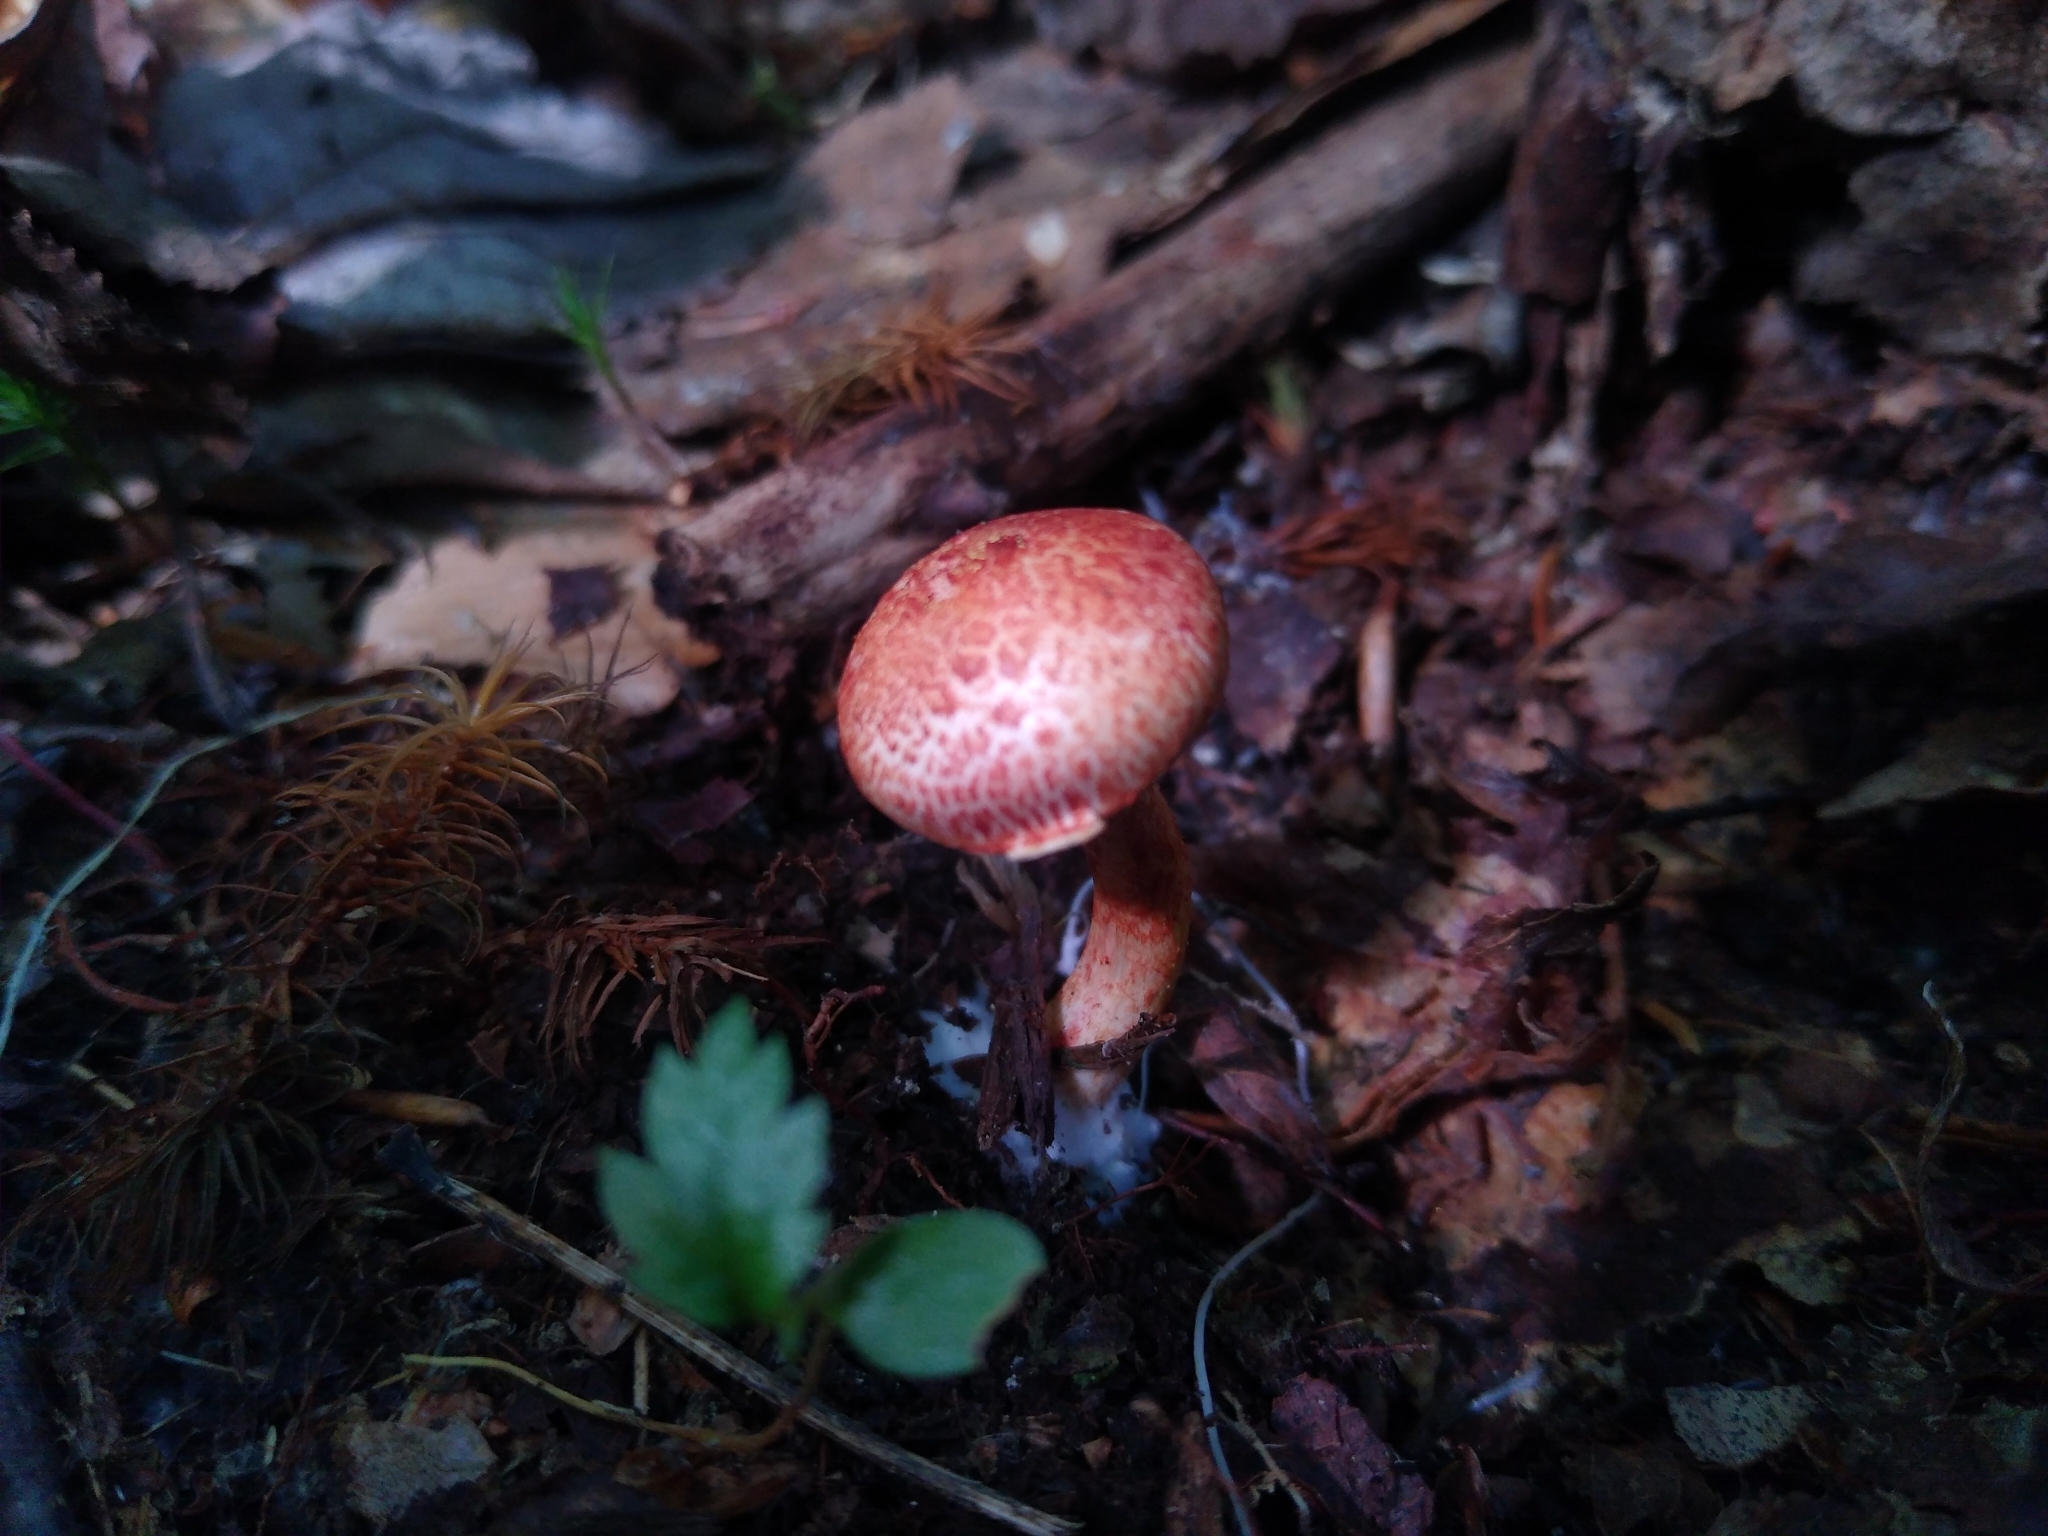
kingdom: Fungi
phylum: Basidiomycota
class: Agaricomycetes
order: Agaricales
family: Cortinariaceae
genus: Cortinarius
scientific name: Cortinarius bolaris
